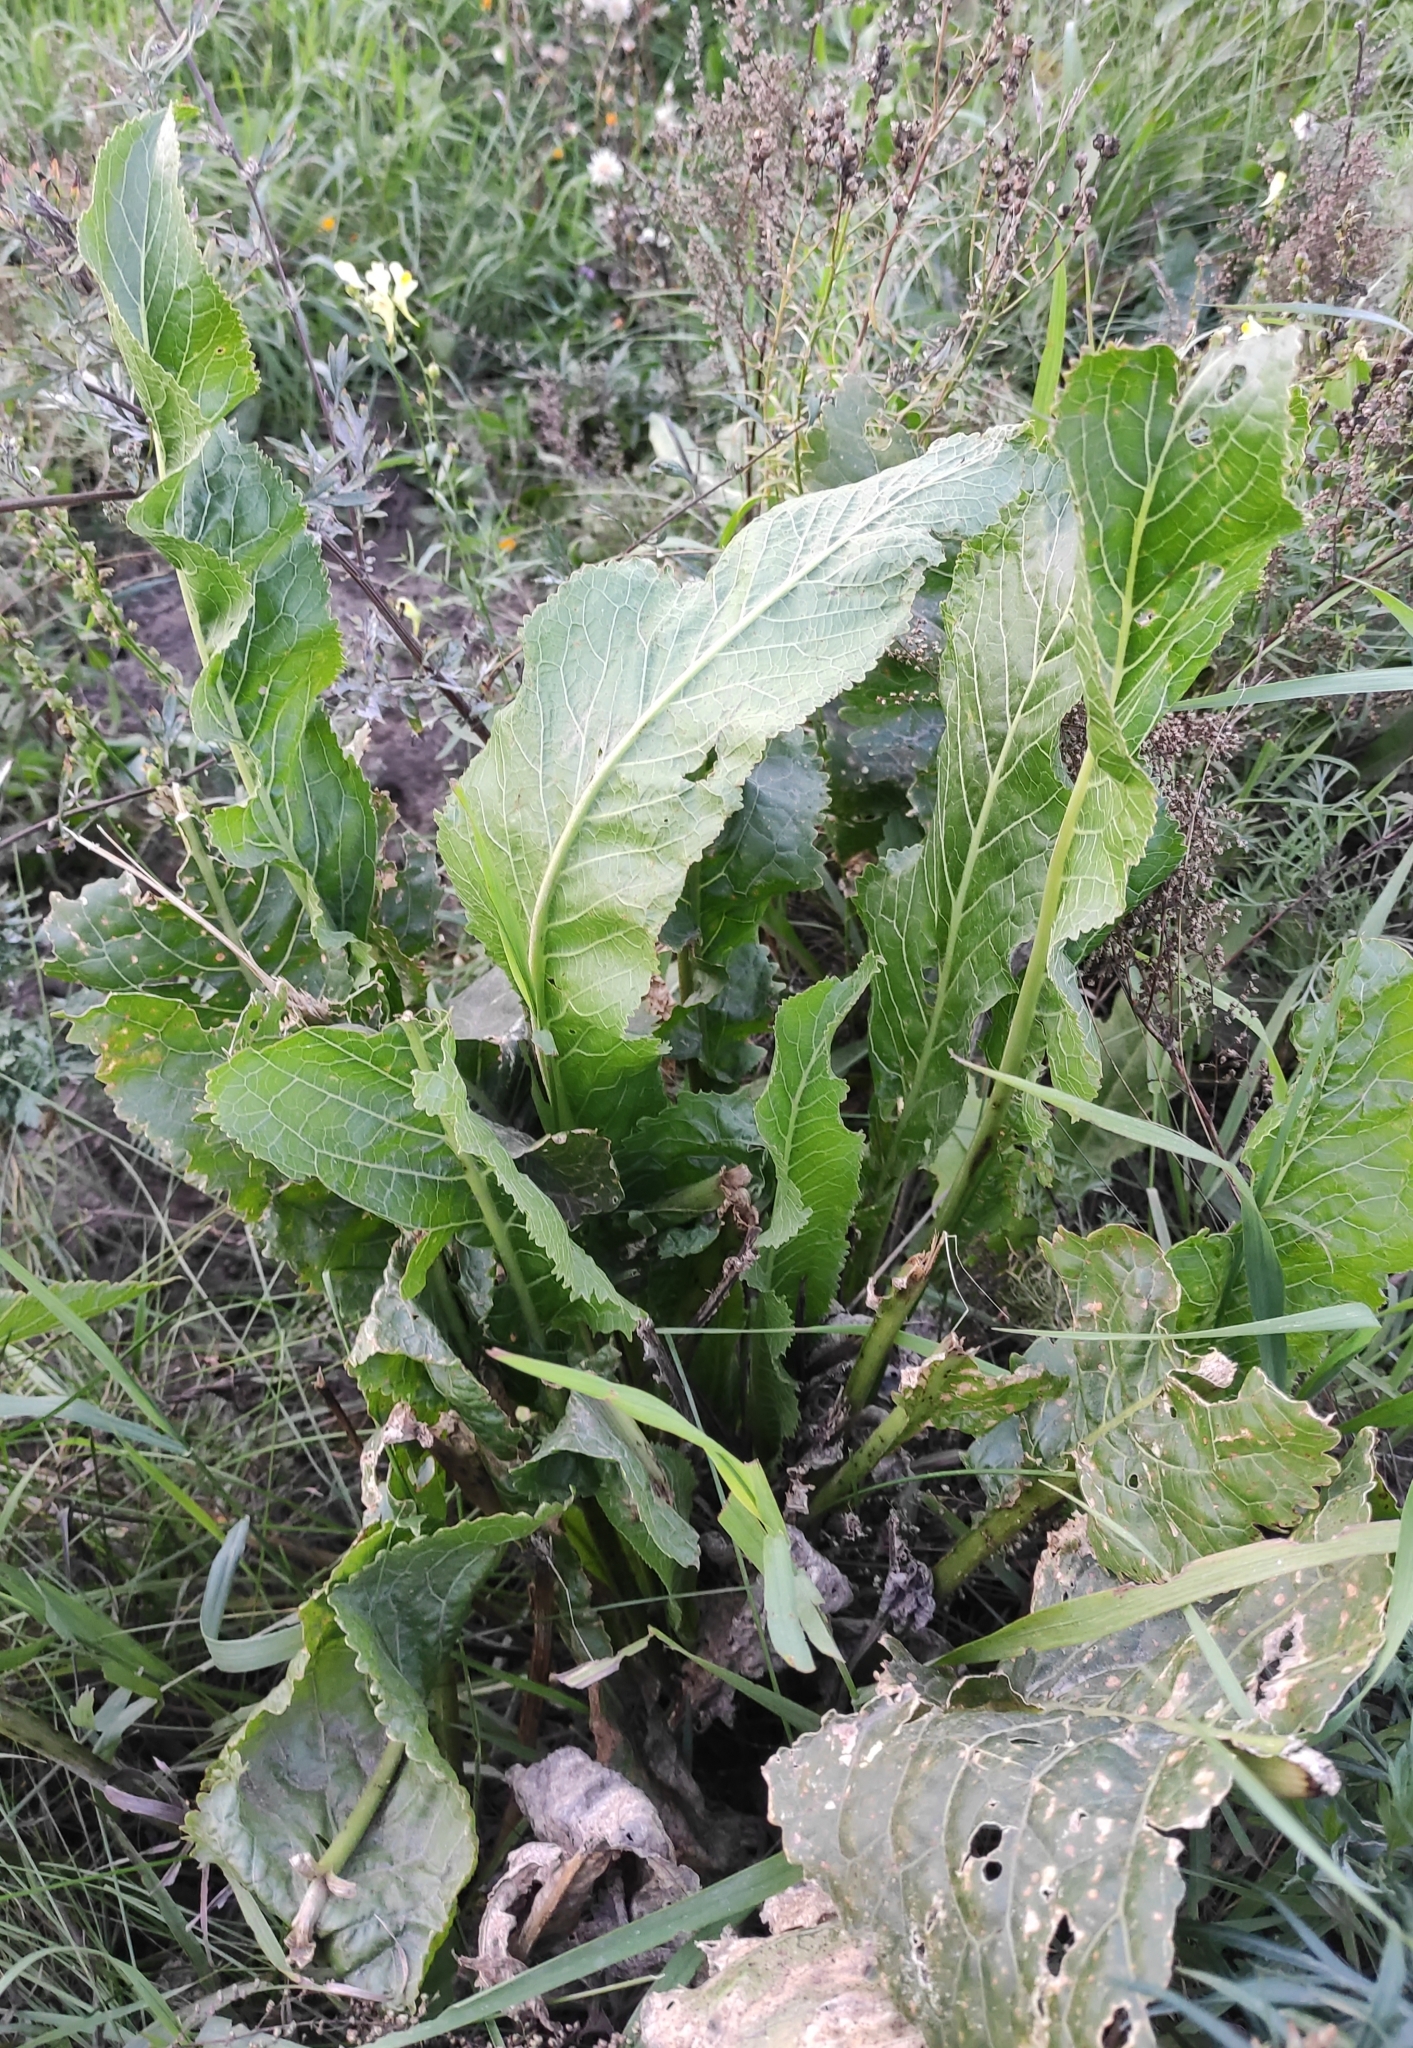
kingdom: Plantae
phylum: Tracheophyta
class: Magnoliopsida
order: Brassicales
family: Brassicaceae
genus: Armoracia
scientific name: Armoracia rusticana
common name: Horseradish
